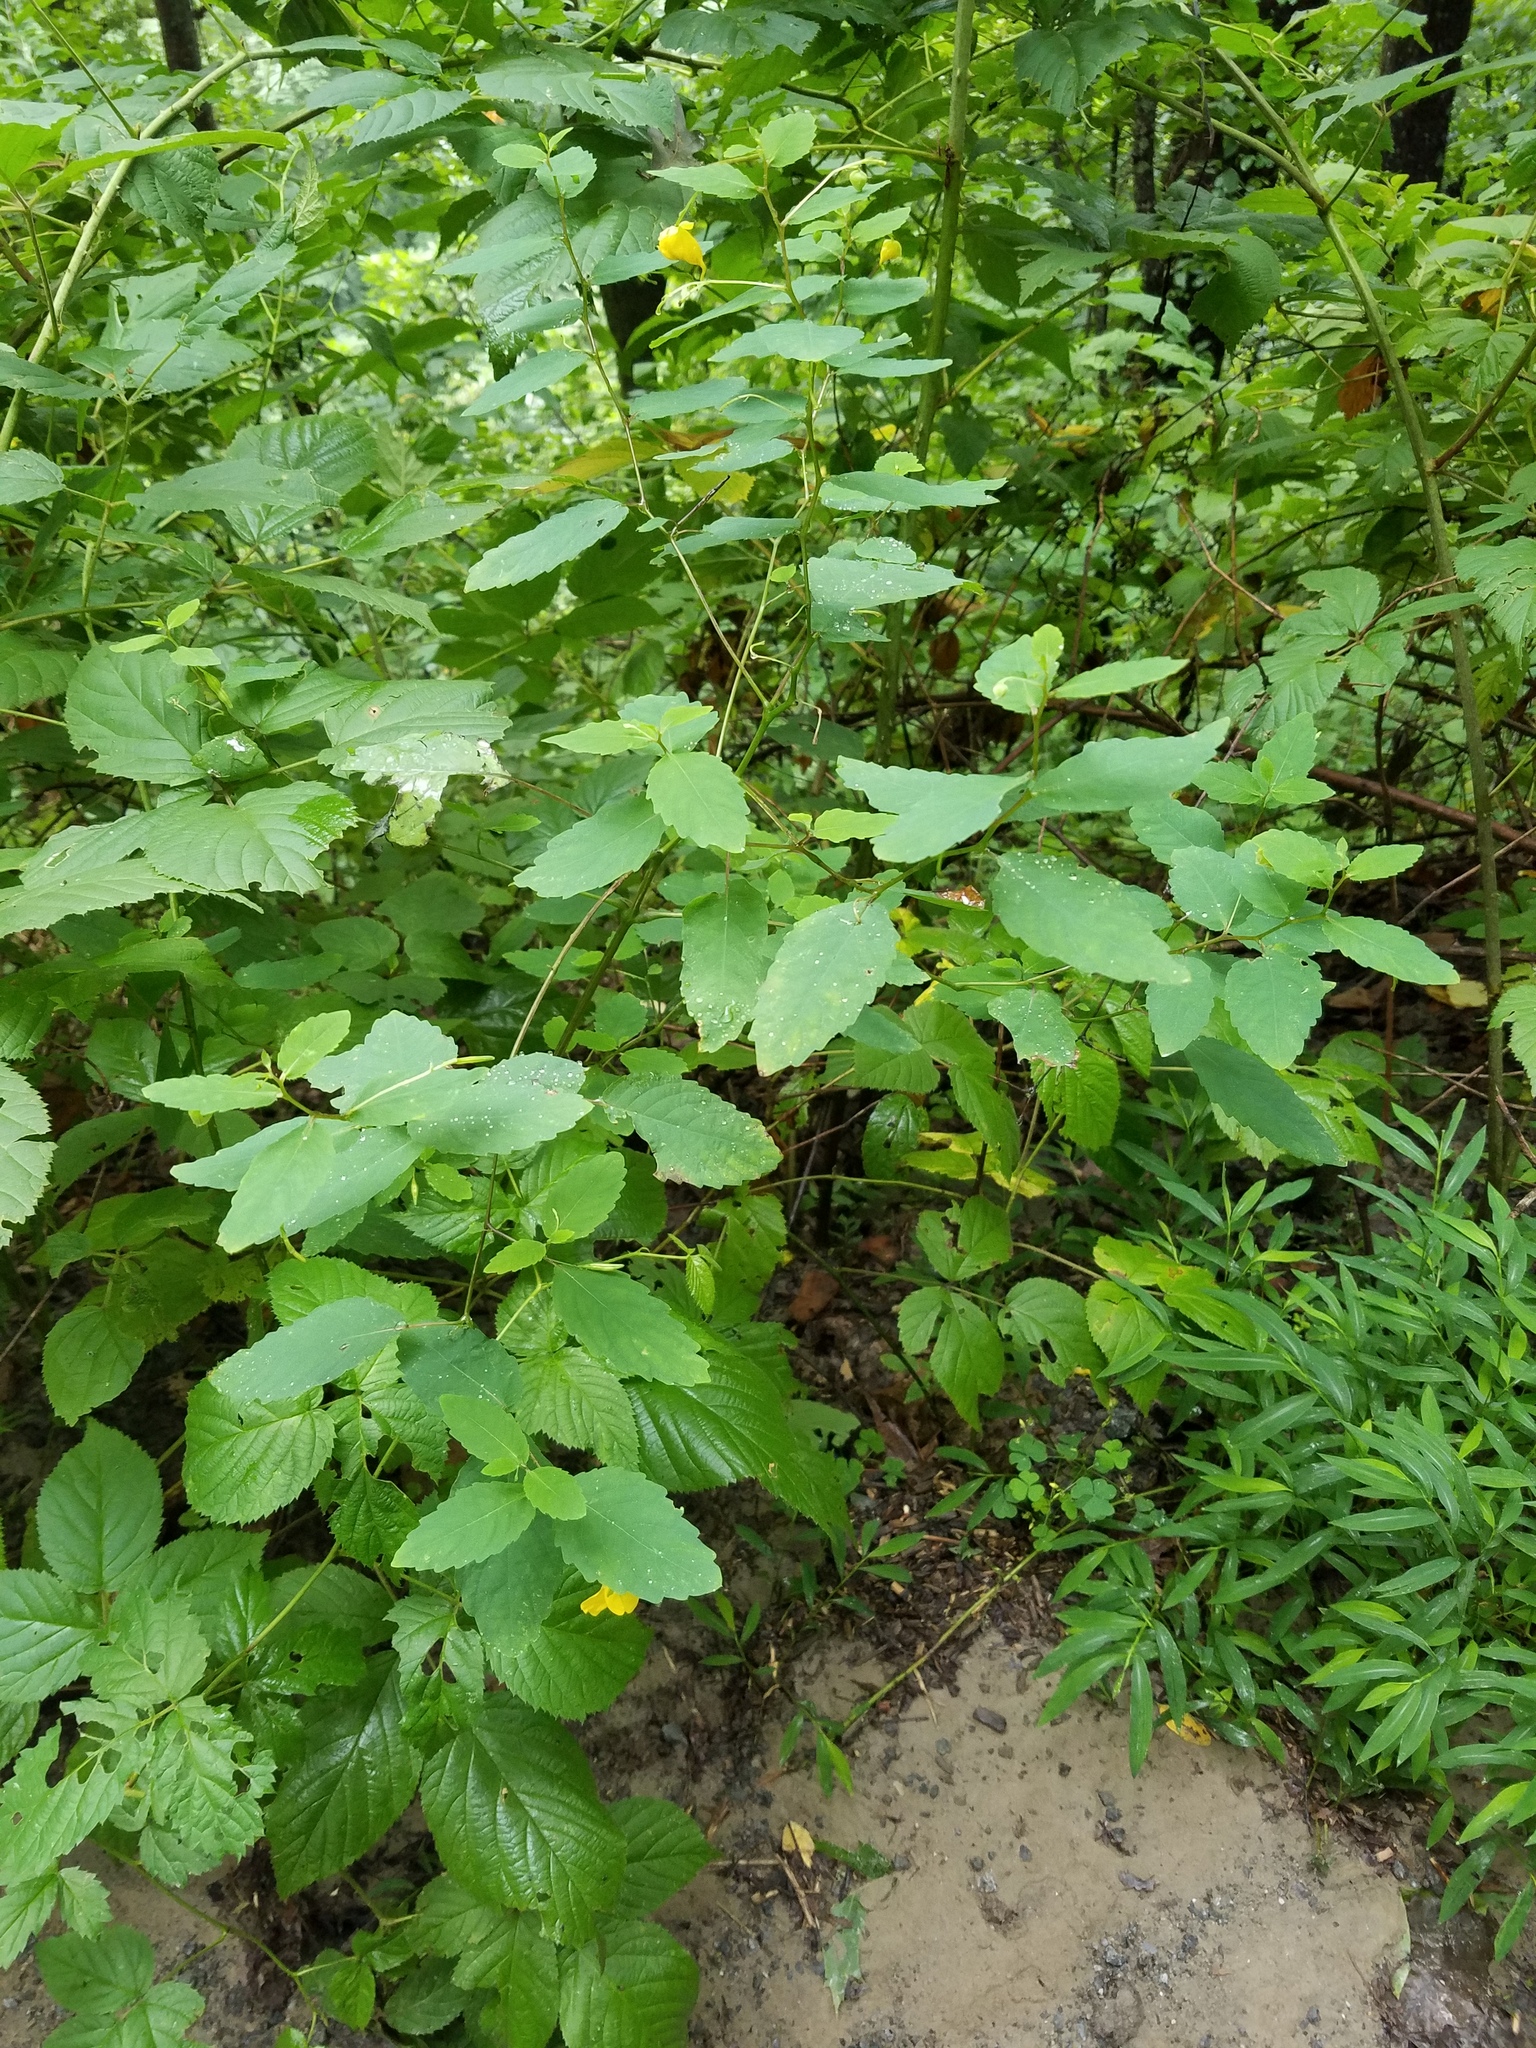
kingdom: Plantae
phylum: Tracheophyta
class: Magnoliopsida
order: Ericales
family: Balsaminaceae
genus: Impatiens
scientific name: Impatiens pallida
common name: Pale snapweed
